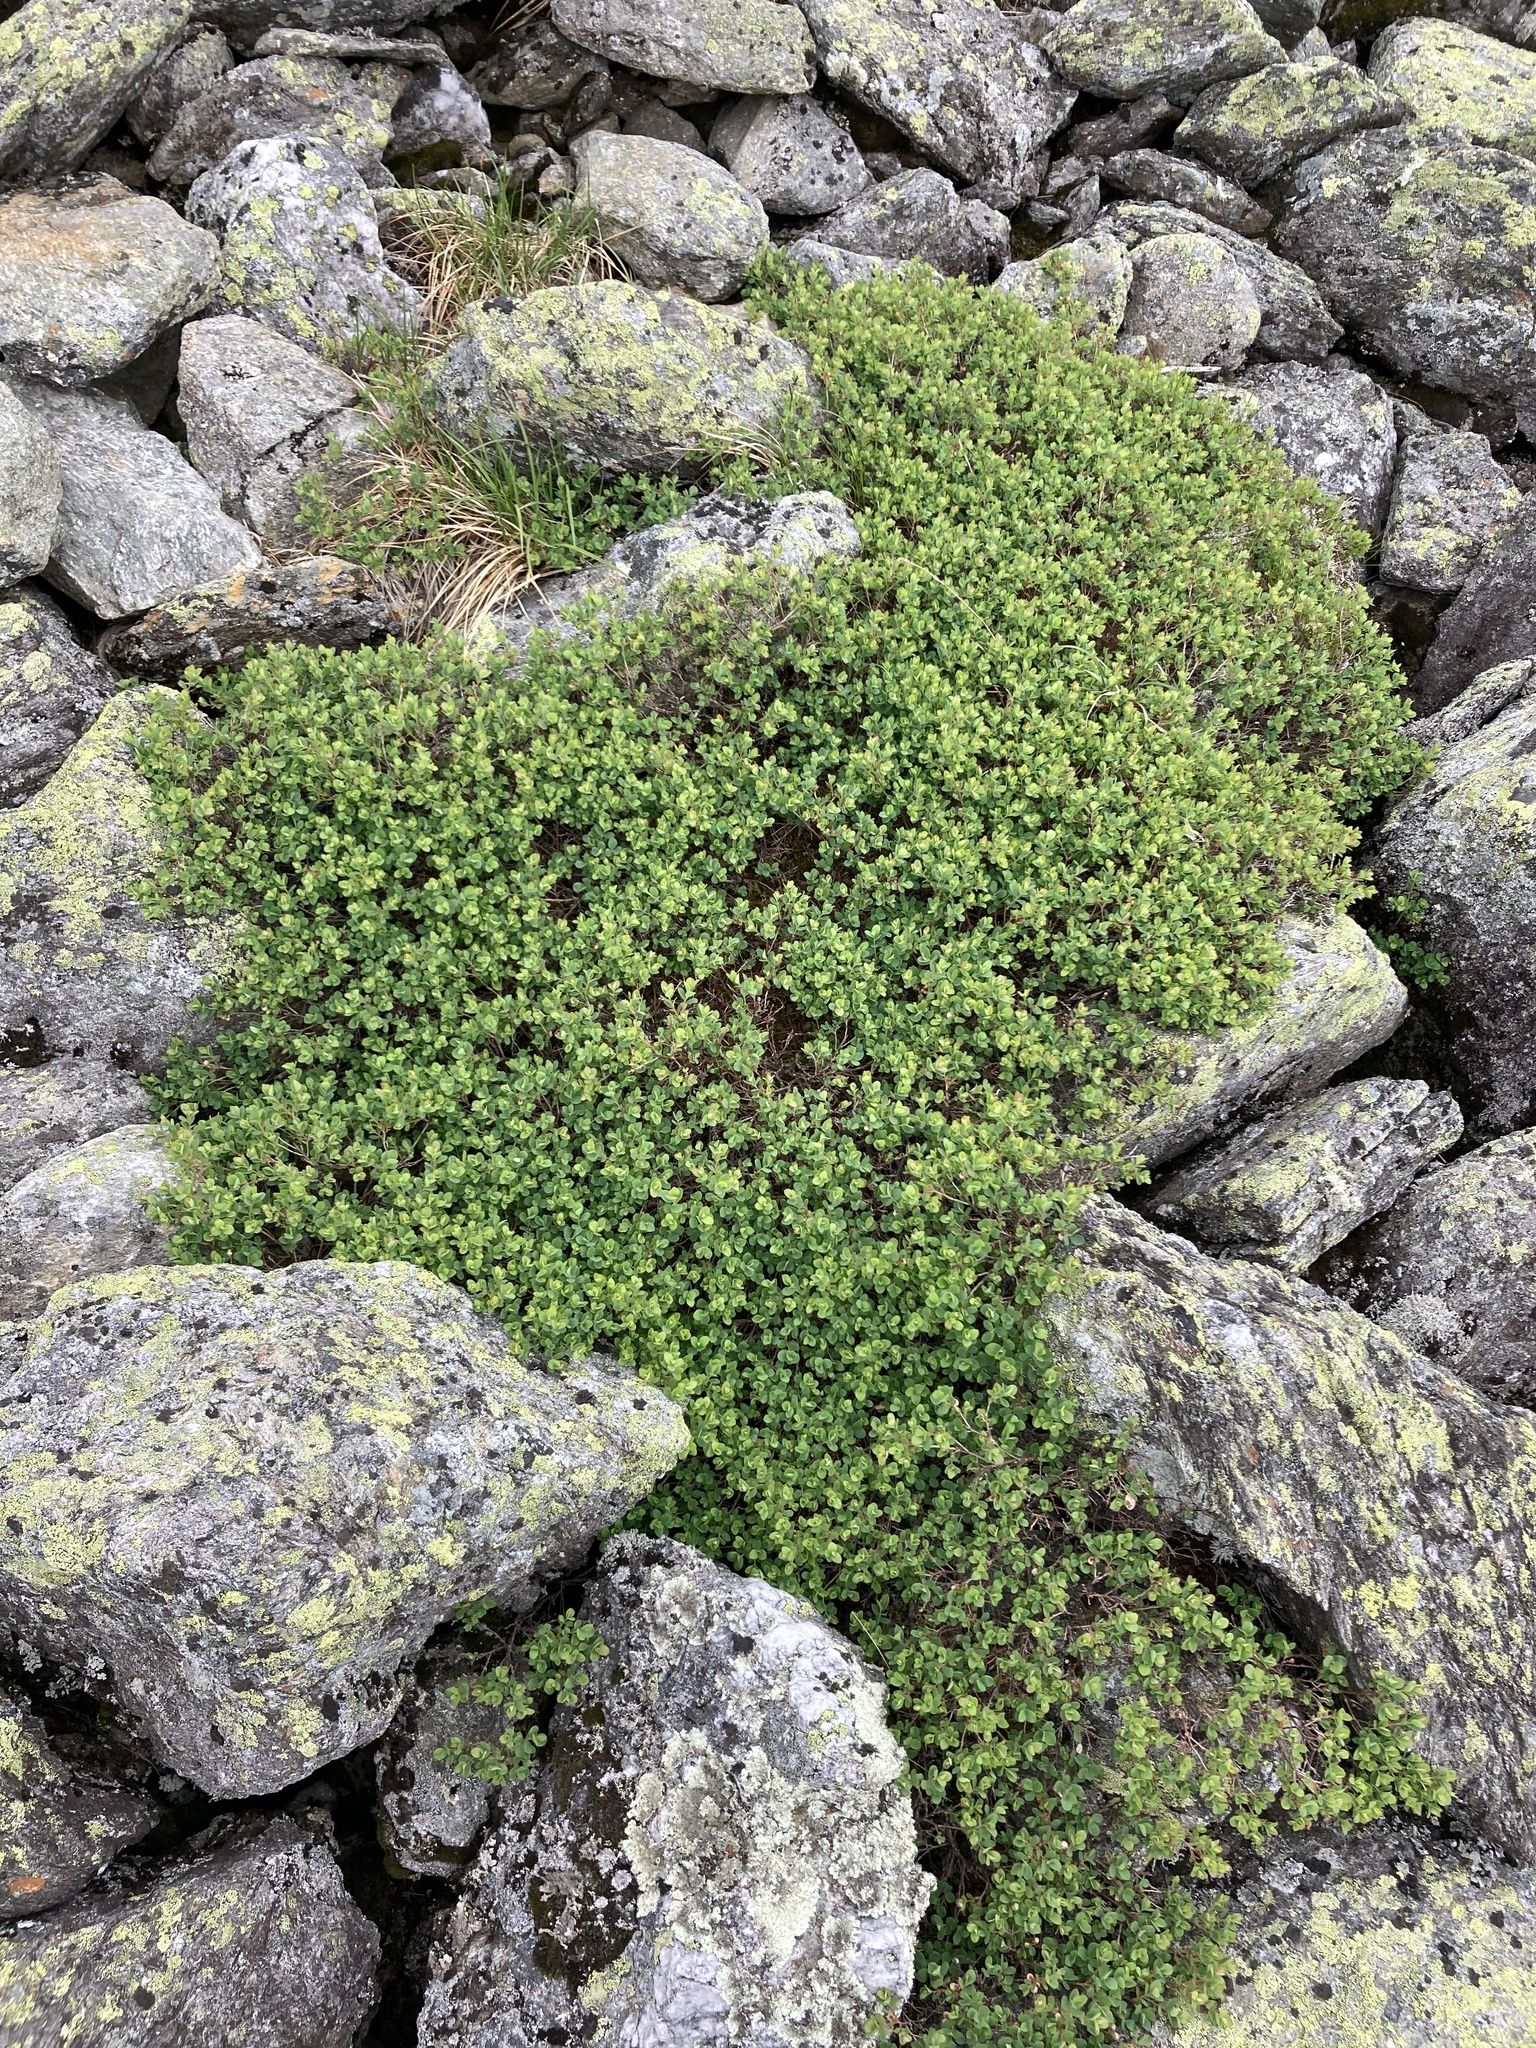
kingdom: Plantae
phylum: Tracheophyta
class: Magnoliopsida
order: Ericales
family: Ericaceae
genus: Vaccinium
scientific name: Vaccinium uliginosum
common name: Bog bilberry
